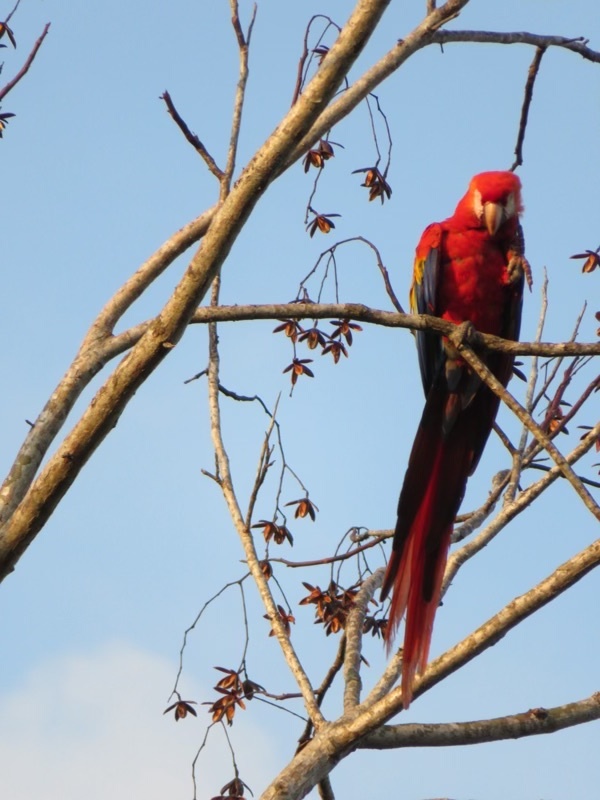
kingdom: Animalia
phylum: Chordata
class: Aves
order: Psittaciformes
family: Psittacidae
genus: Ara
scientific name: Ara macao
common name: Scarlet macaw
